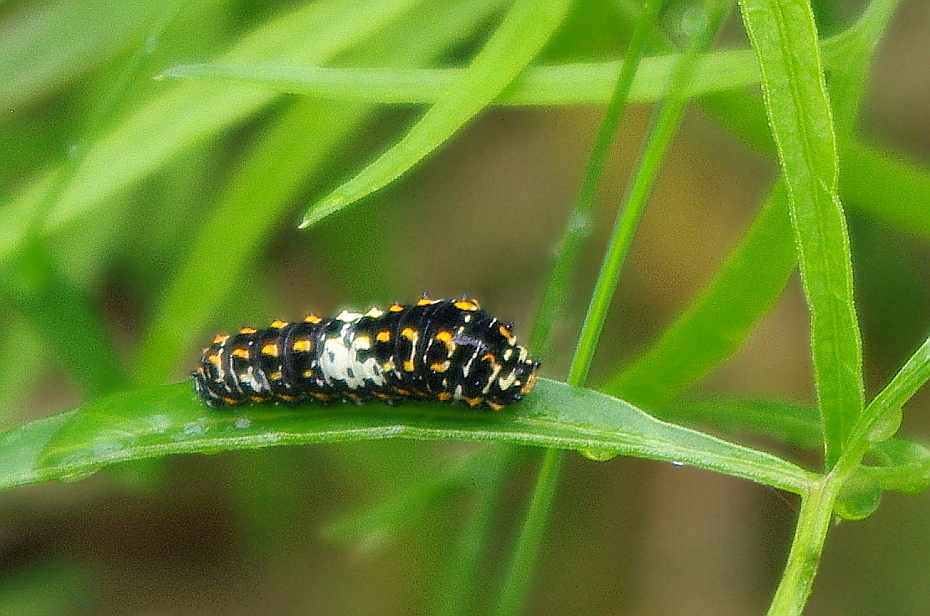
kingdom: Animalia
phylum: Arthropoda
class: Insecta
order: Lepidoptera
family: Papilionidae
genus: Papilio
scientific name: Papilio machaon
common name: Swallowtail
